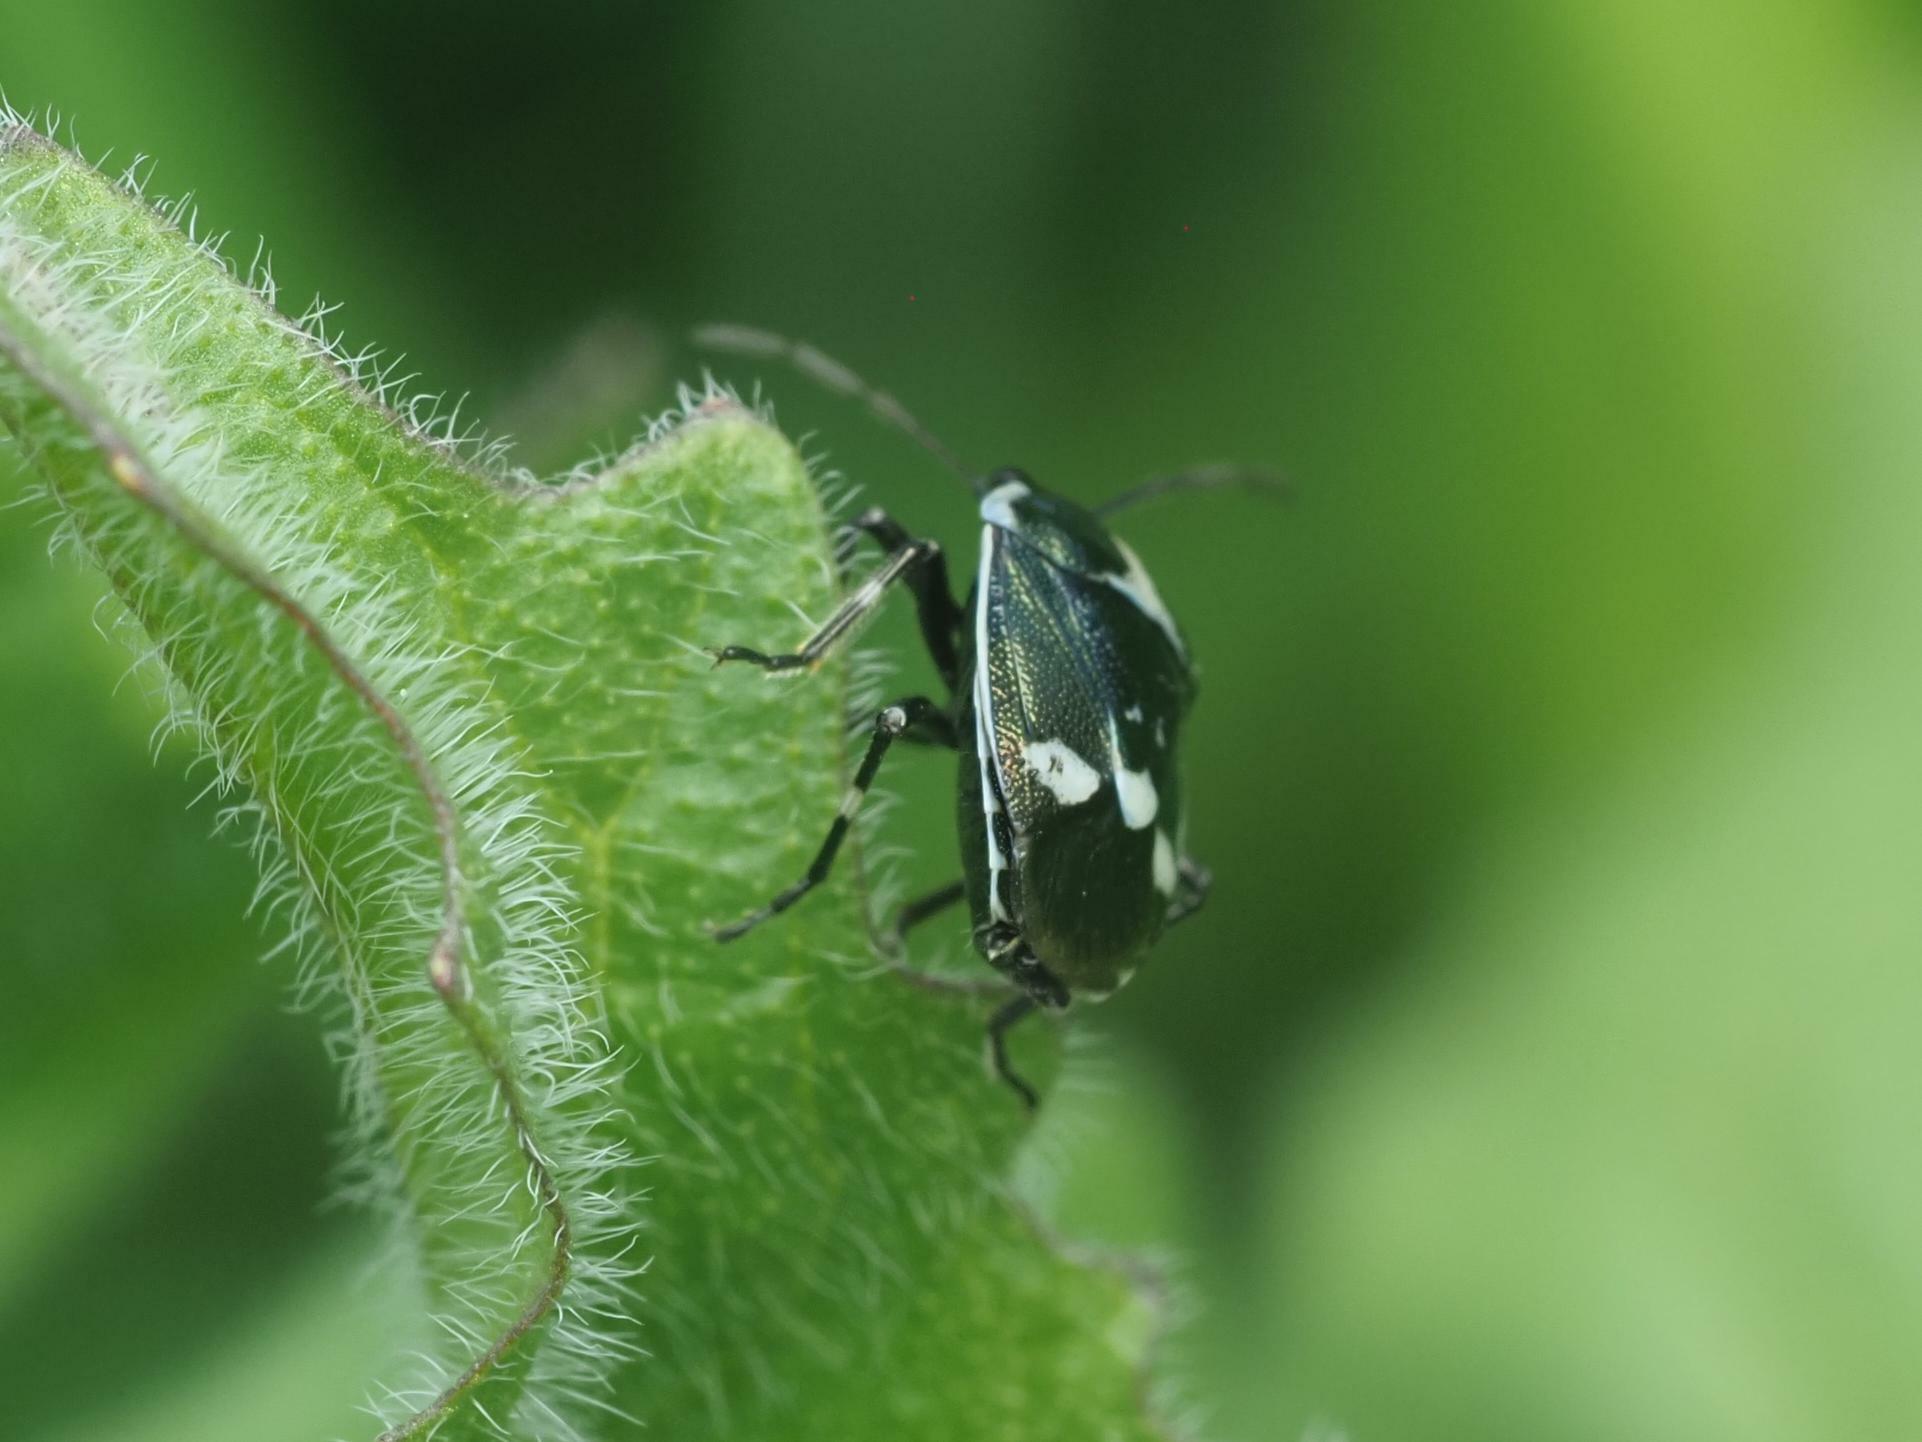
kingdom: Animalia
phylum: Arthropoda
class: Insecta
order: Hemiptera
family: Pentatomidae
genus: Eurydema
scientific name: Eurydema oleracea
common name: Cabbage bug
